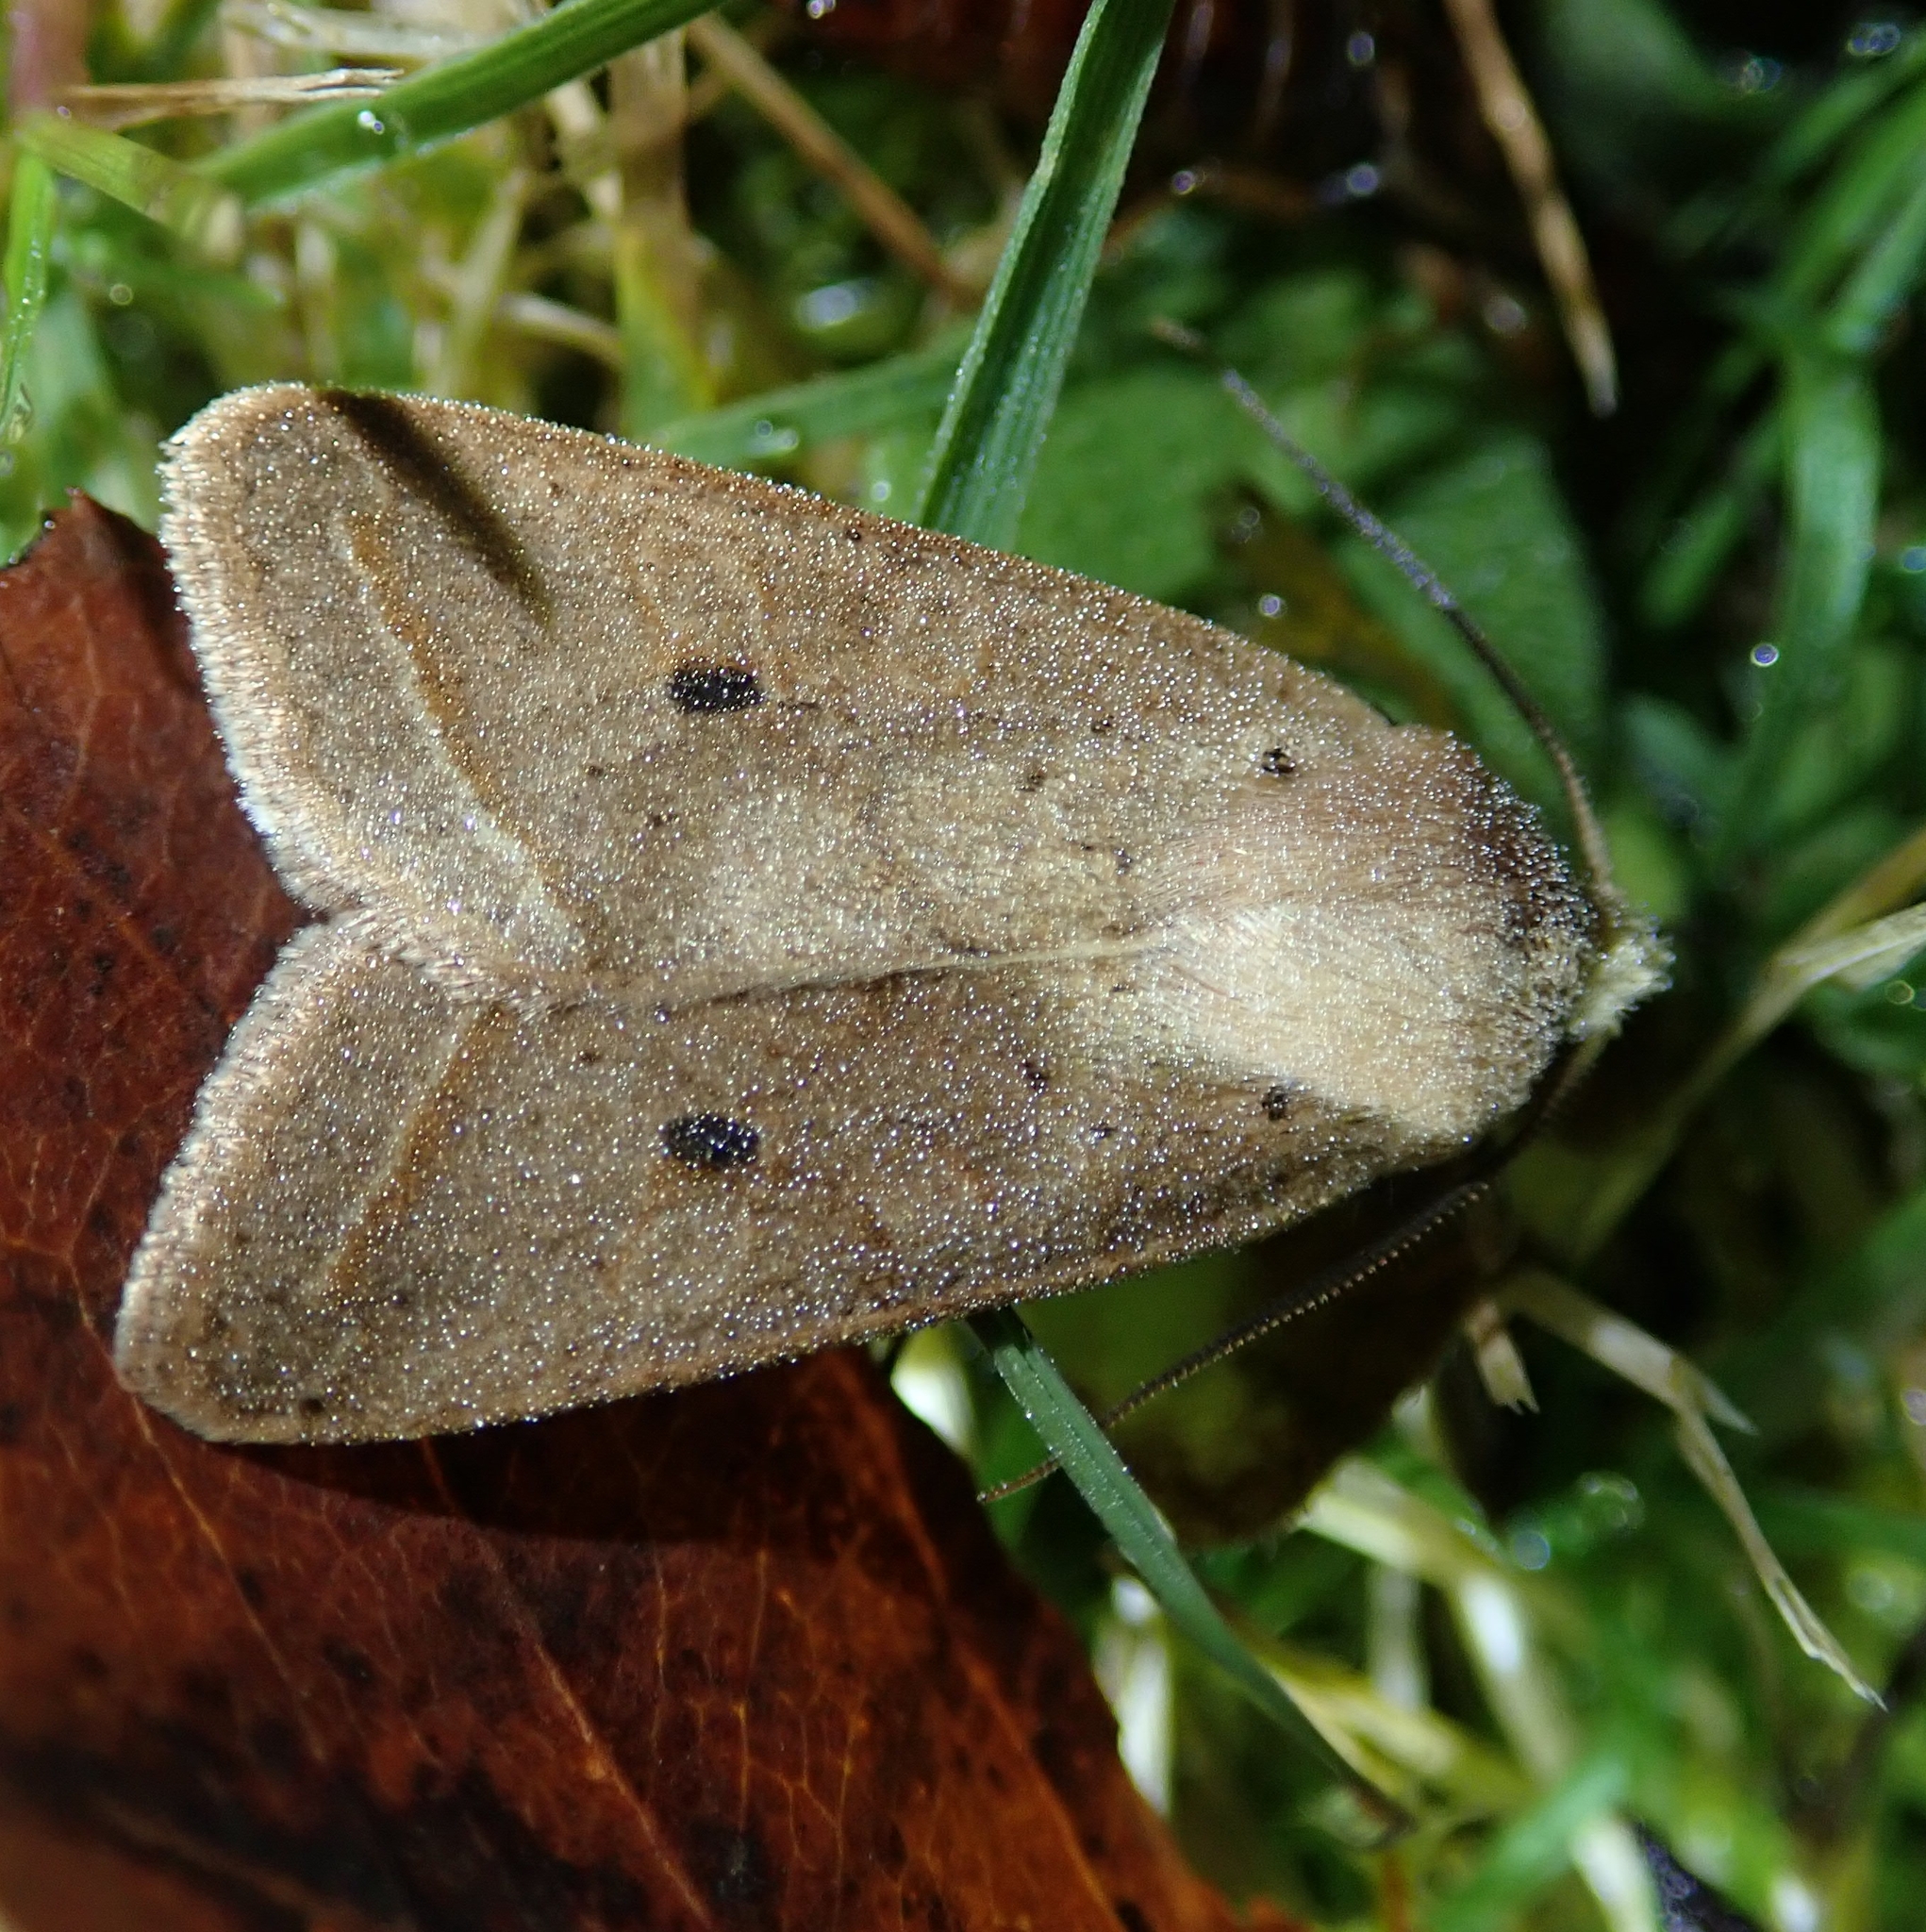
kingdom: Animalia
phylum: Arthropoda
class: Insecta
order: Lepidoptera
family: Noctuidae
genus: Agrochola
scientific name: Agrochola lota
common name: Red-line quaker
